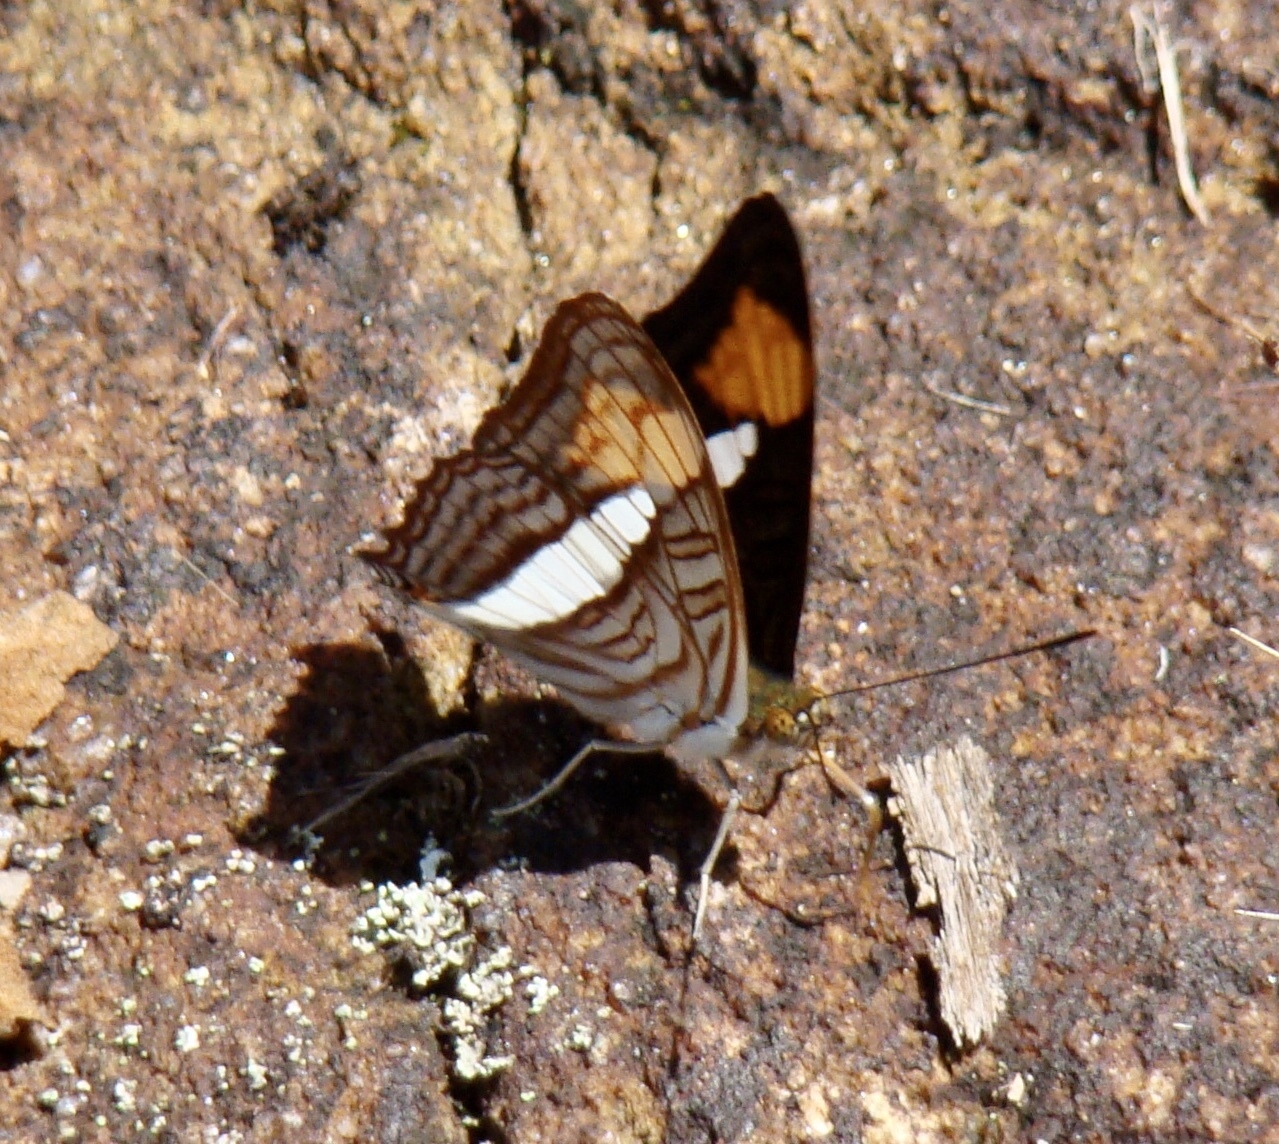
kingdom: Animalia
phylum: Arthropoda
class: Insecta
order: Lepidoptera
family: Nymphalidae
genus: Limenitis
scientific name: Limenitis Adelpha iphiclus
